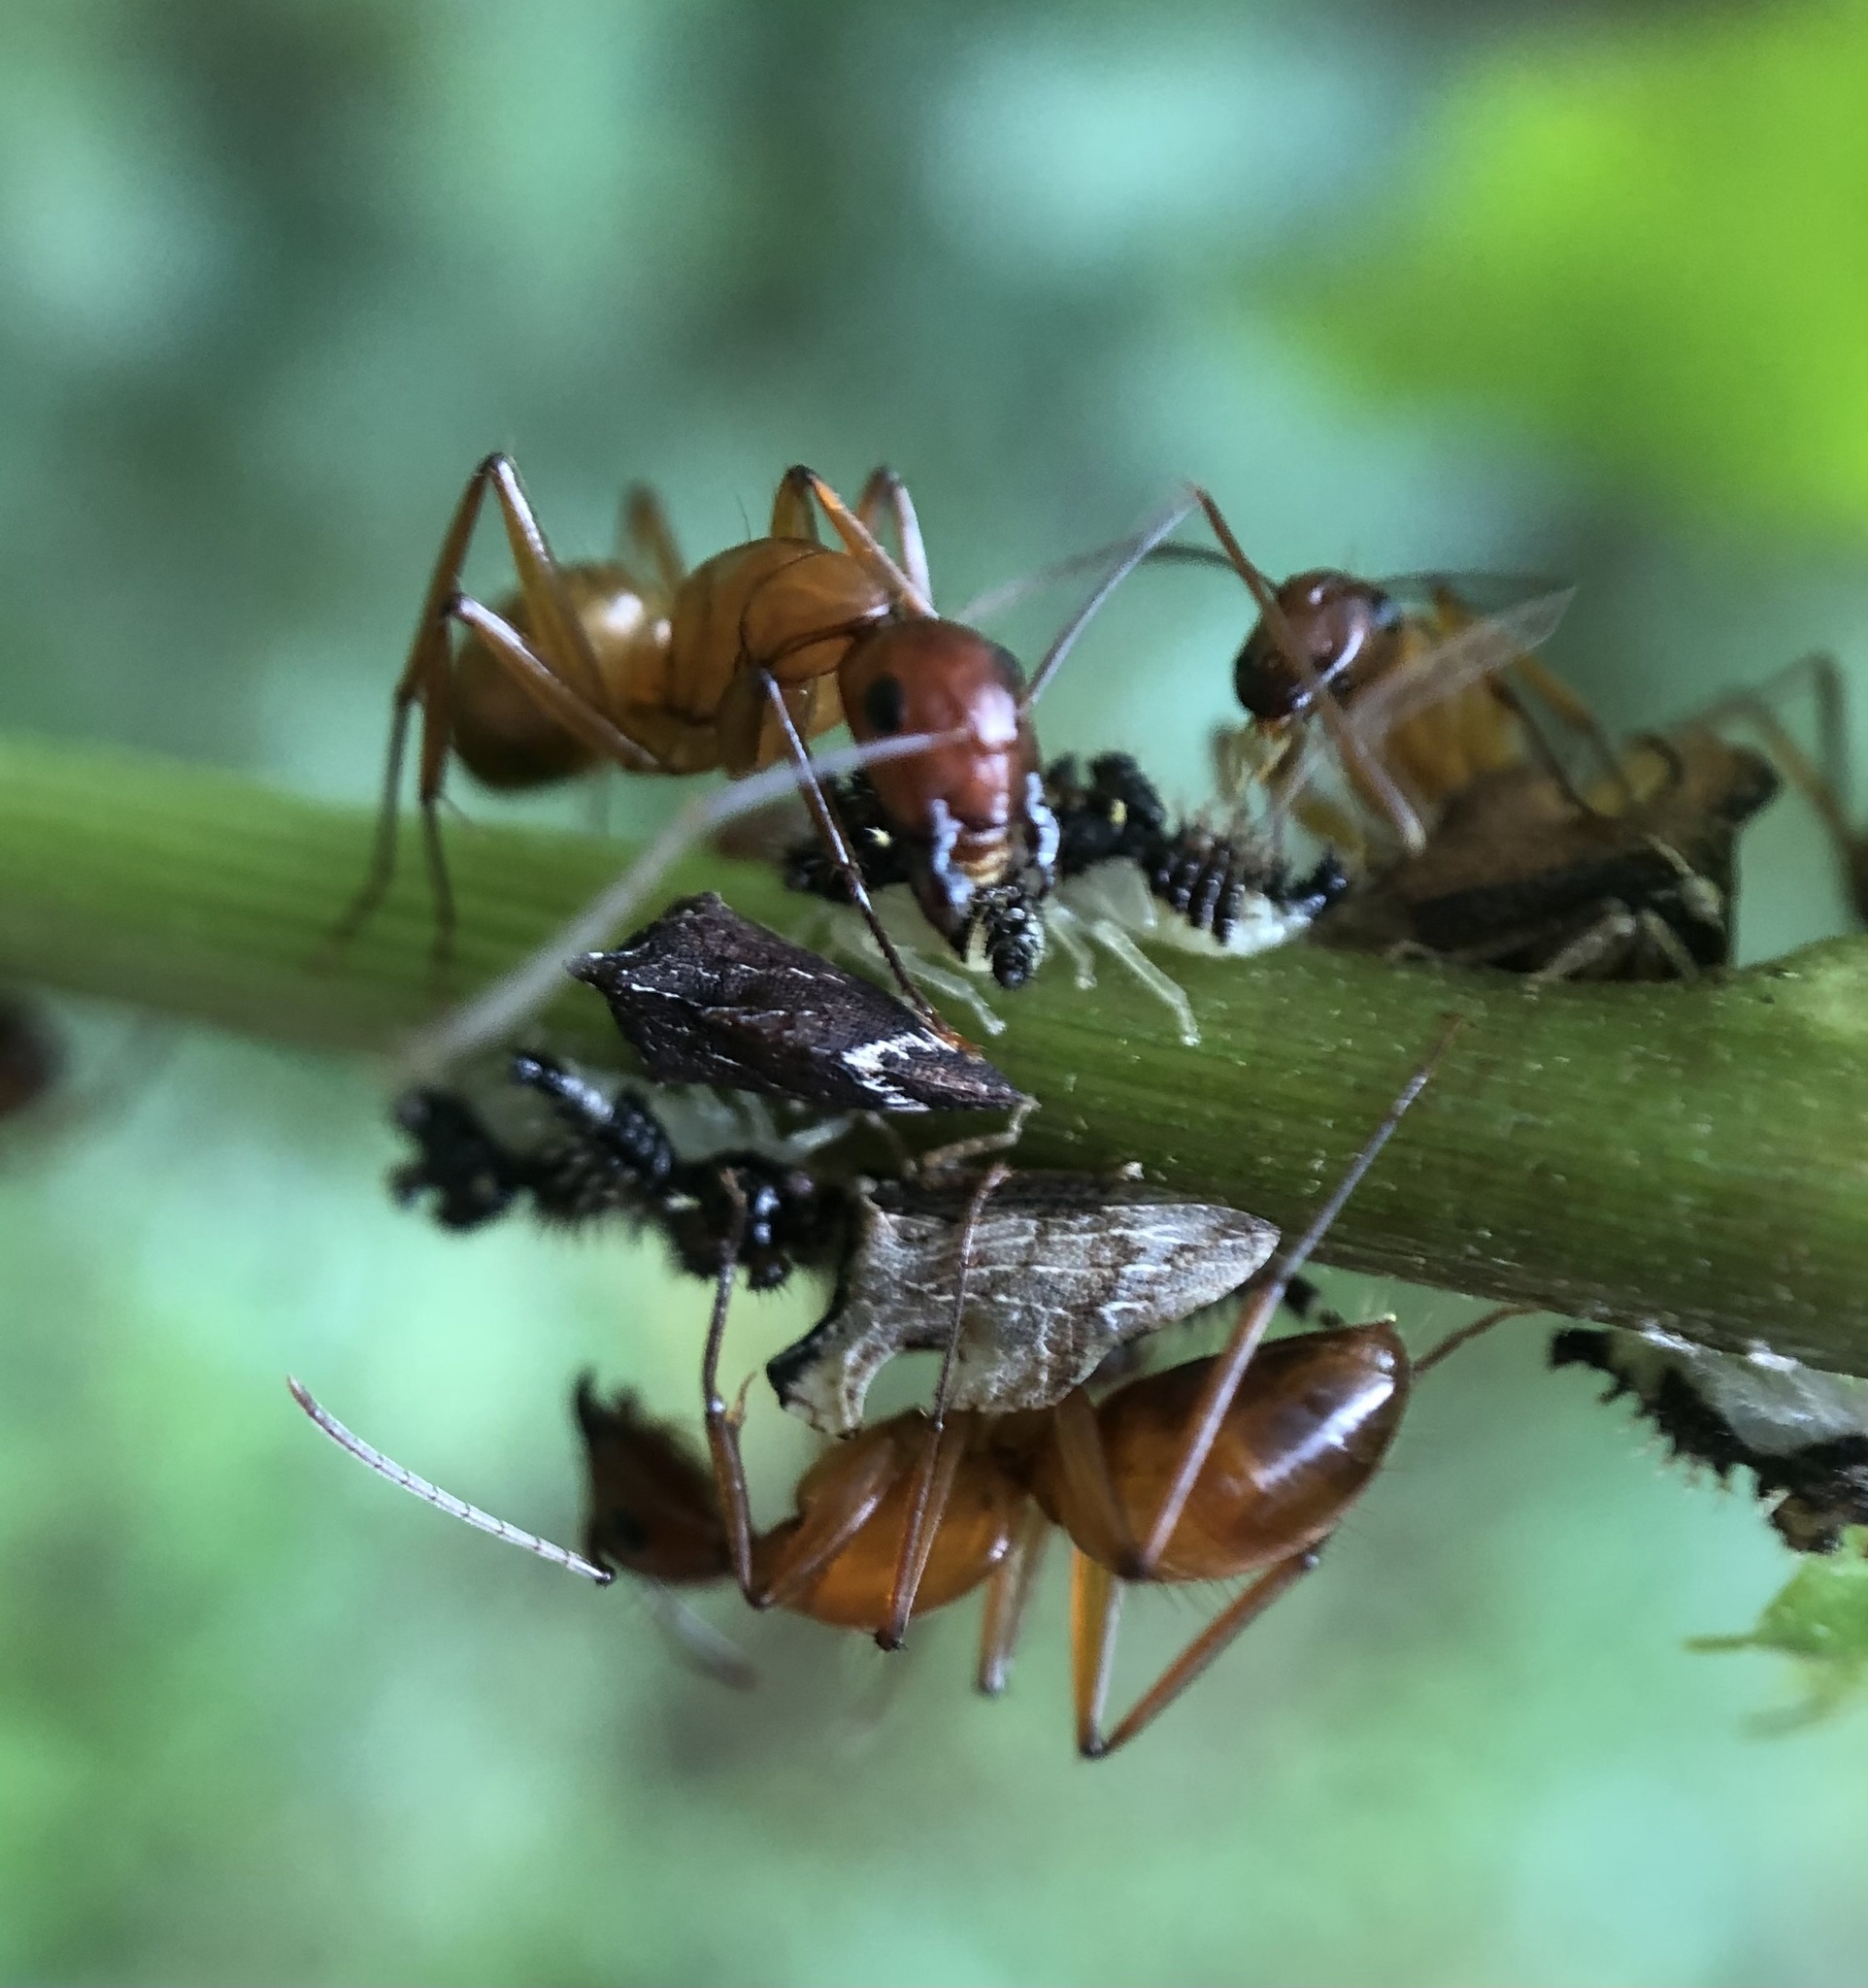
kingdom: Animalia
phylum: Arthropoda
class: Insecta
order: Hymenoptera
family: Formicidae
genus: Camponotus
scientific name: Camponotus castaneus
